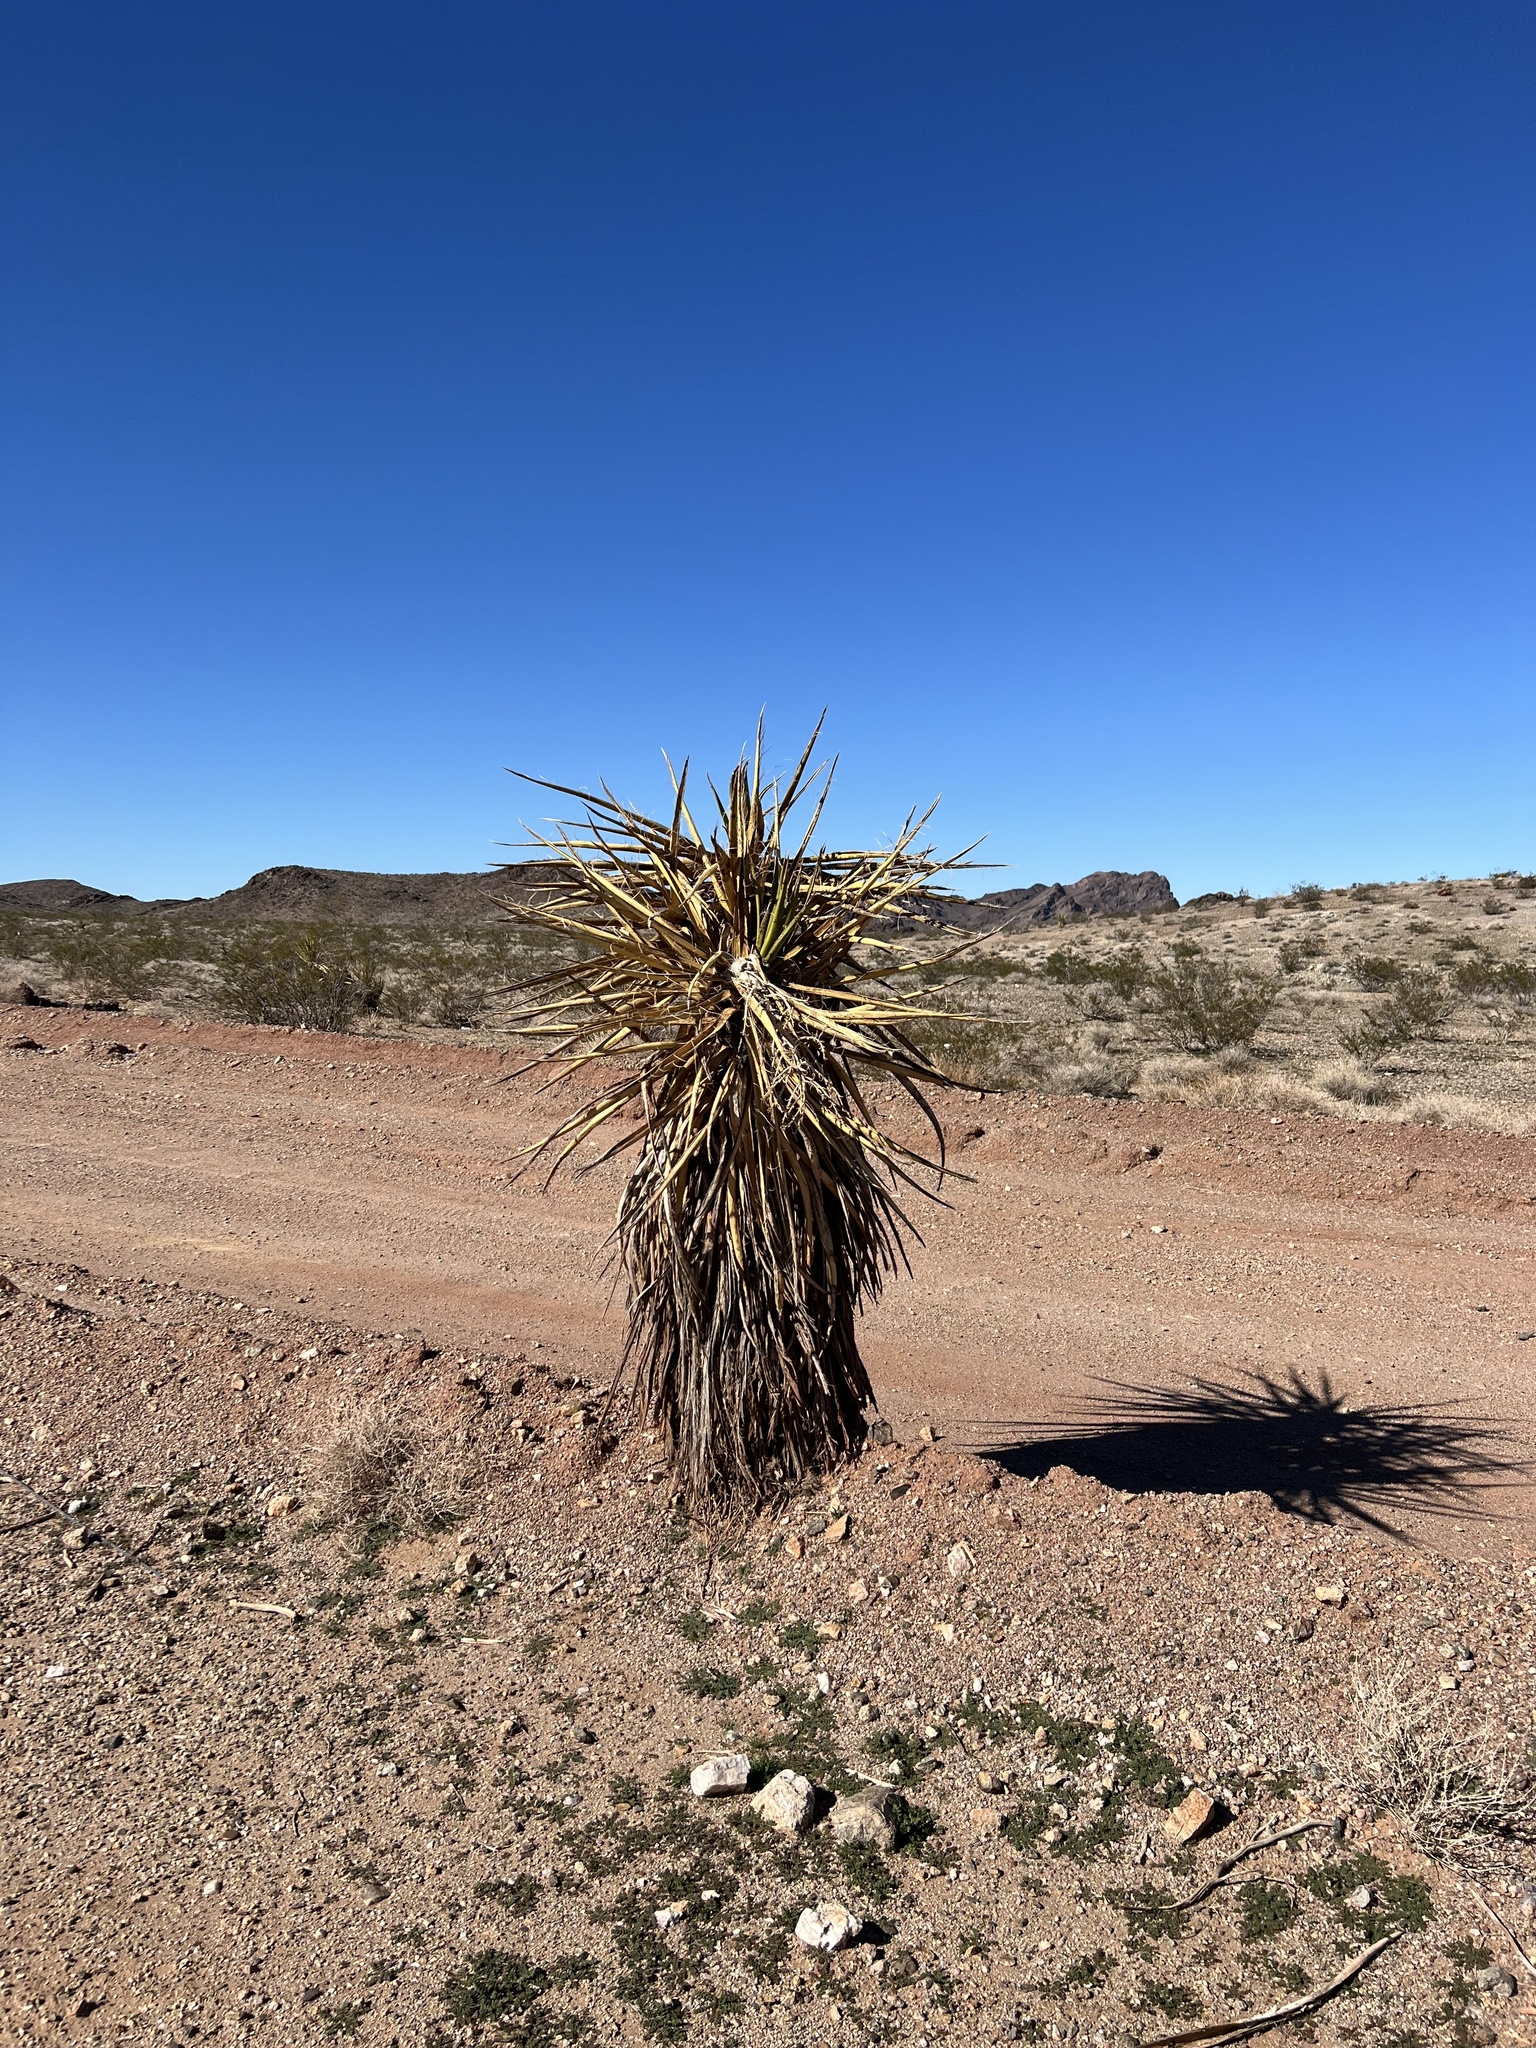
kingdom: Plantae
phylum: Tracheophyta
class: Liliopsida
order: Asparagales
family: Asparagaceae
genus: Yucca
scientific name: Yucca schidigera
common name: Mojave yucca
